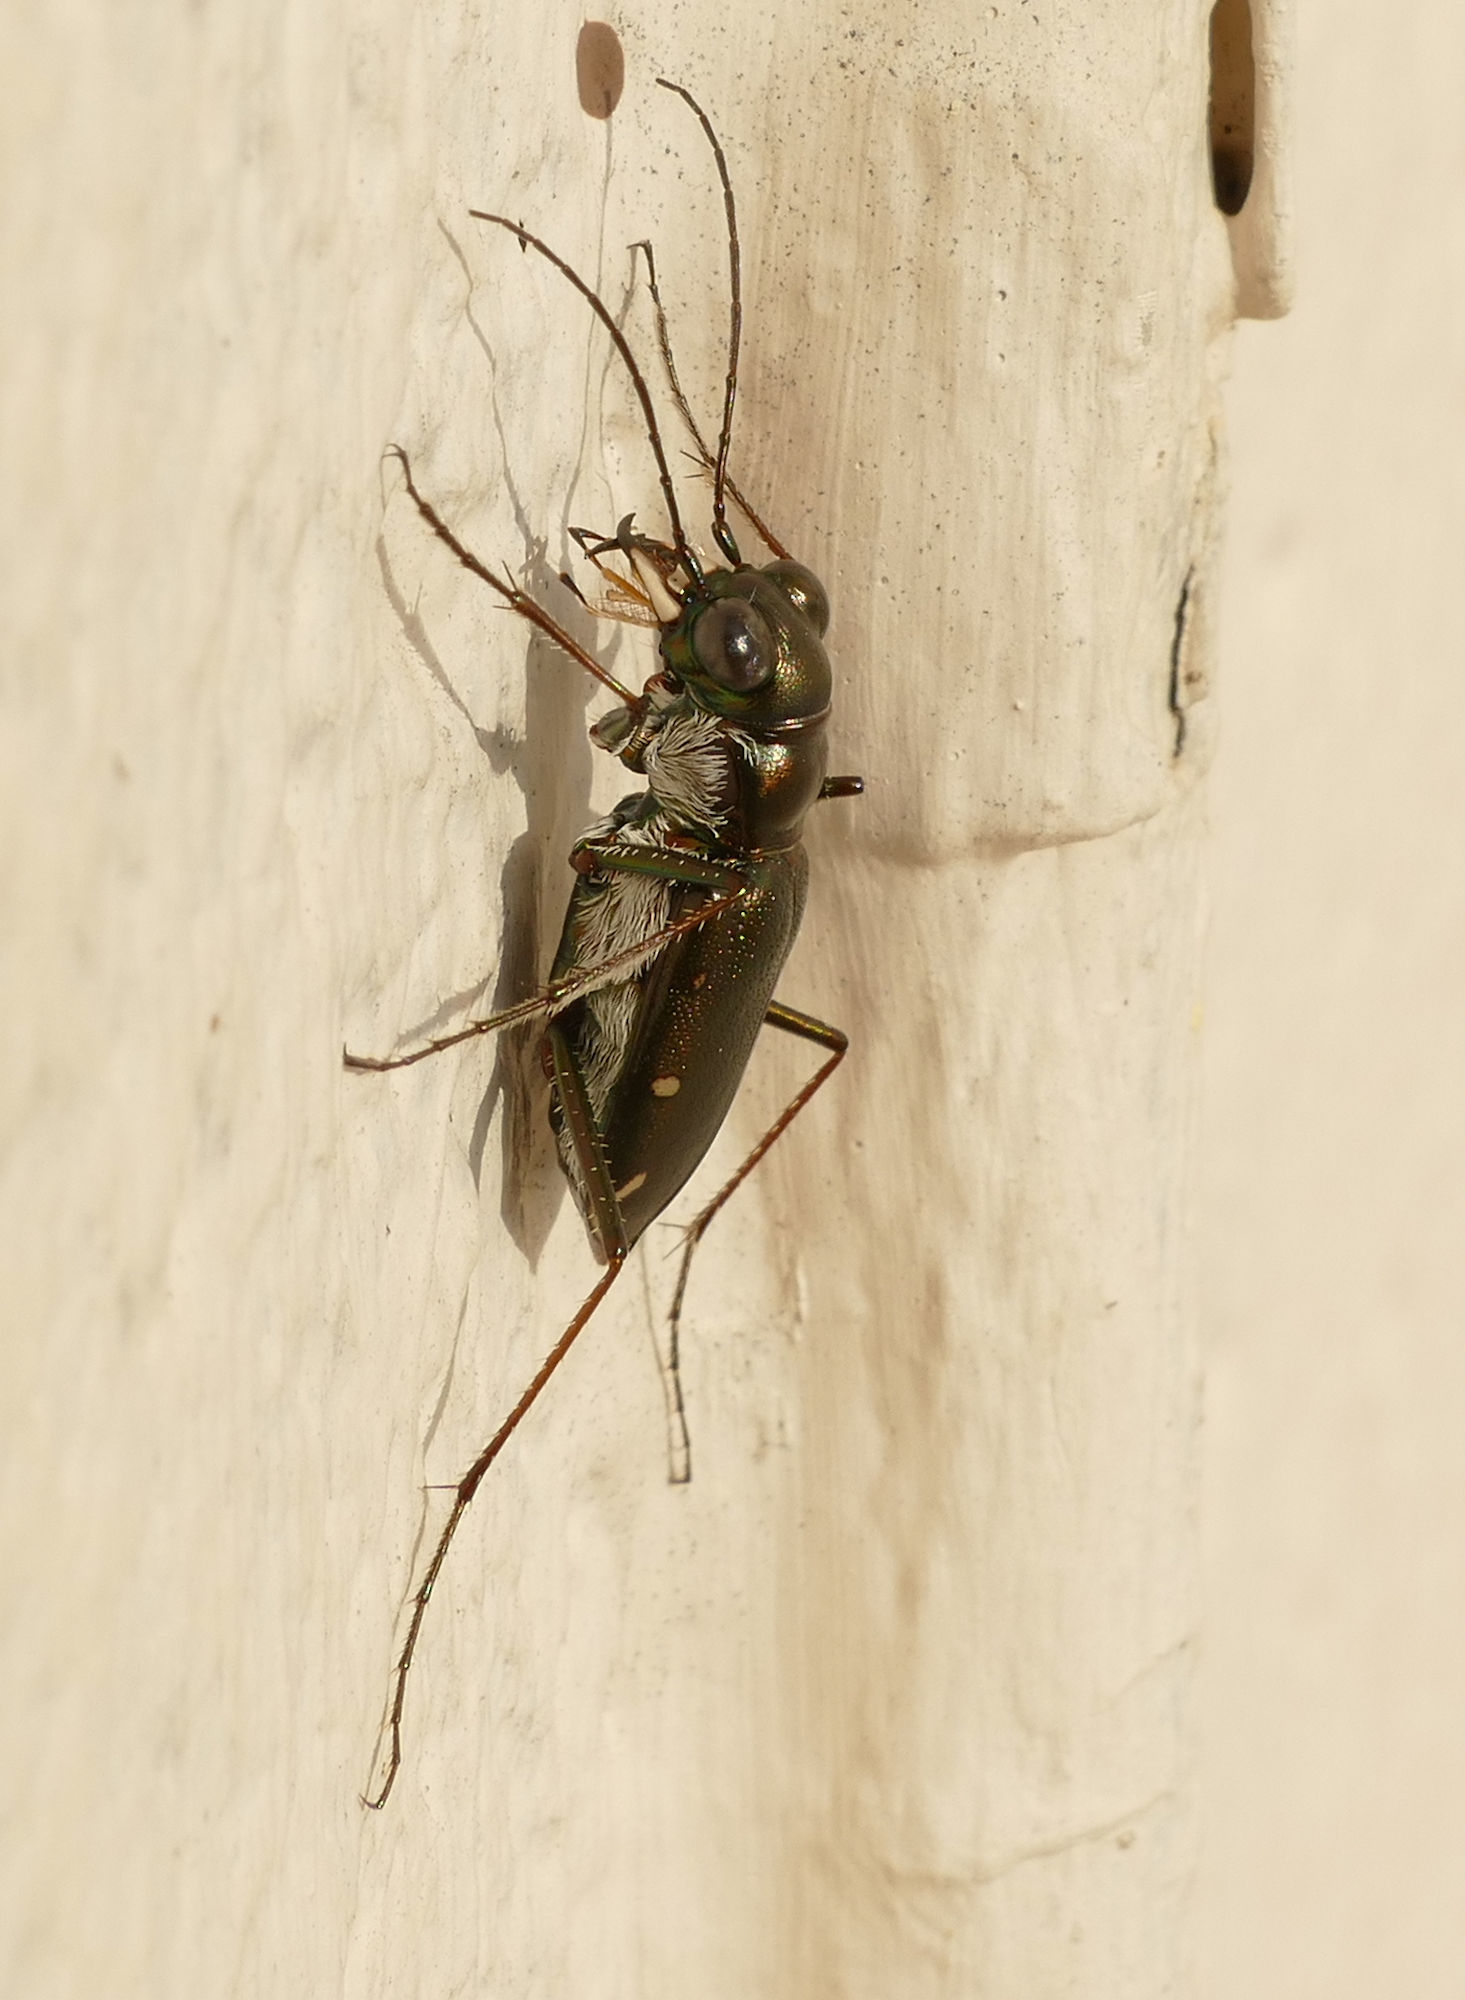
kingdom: Animalia
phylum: Arthropoda
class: Insecta
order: Coleoptera
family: Carabidae
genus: Eunota
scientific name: Eunota severa
